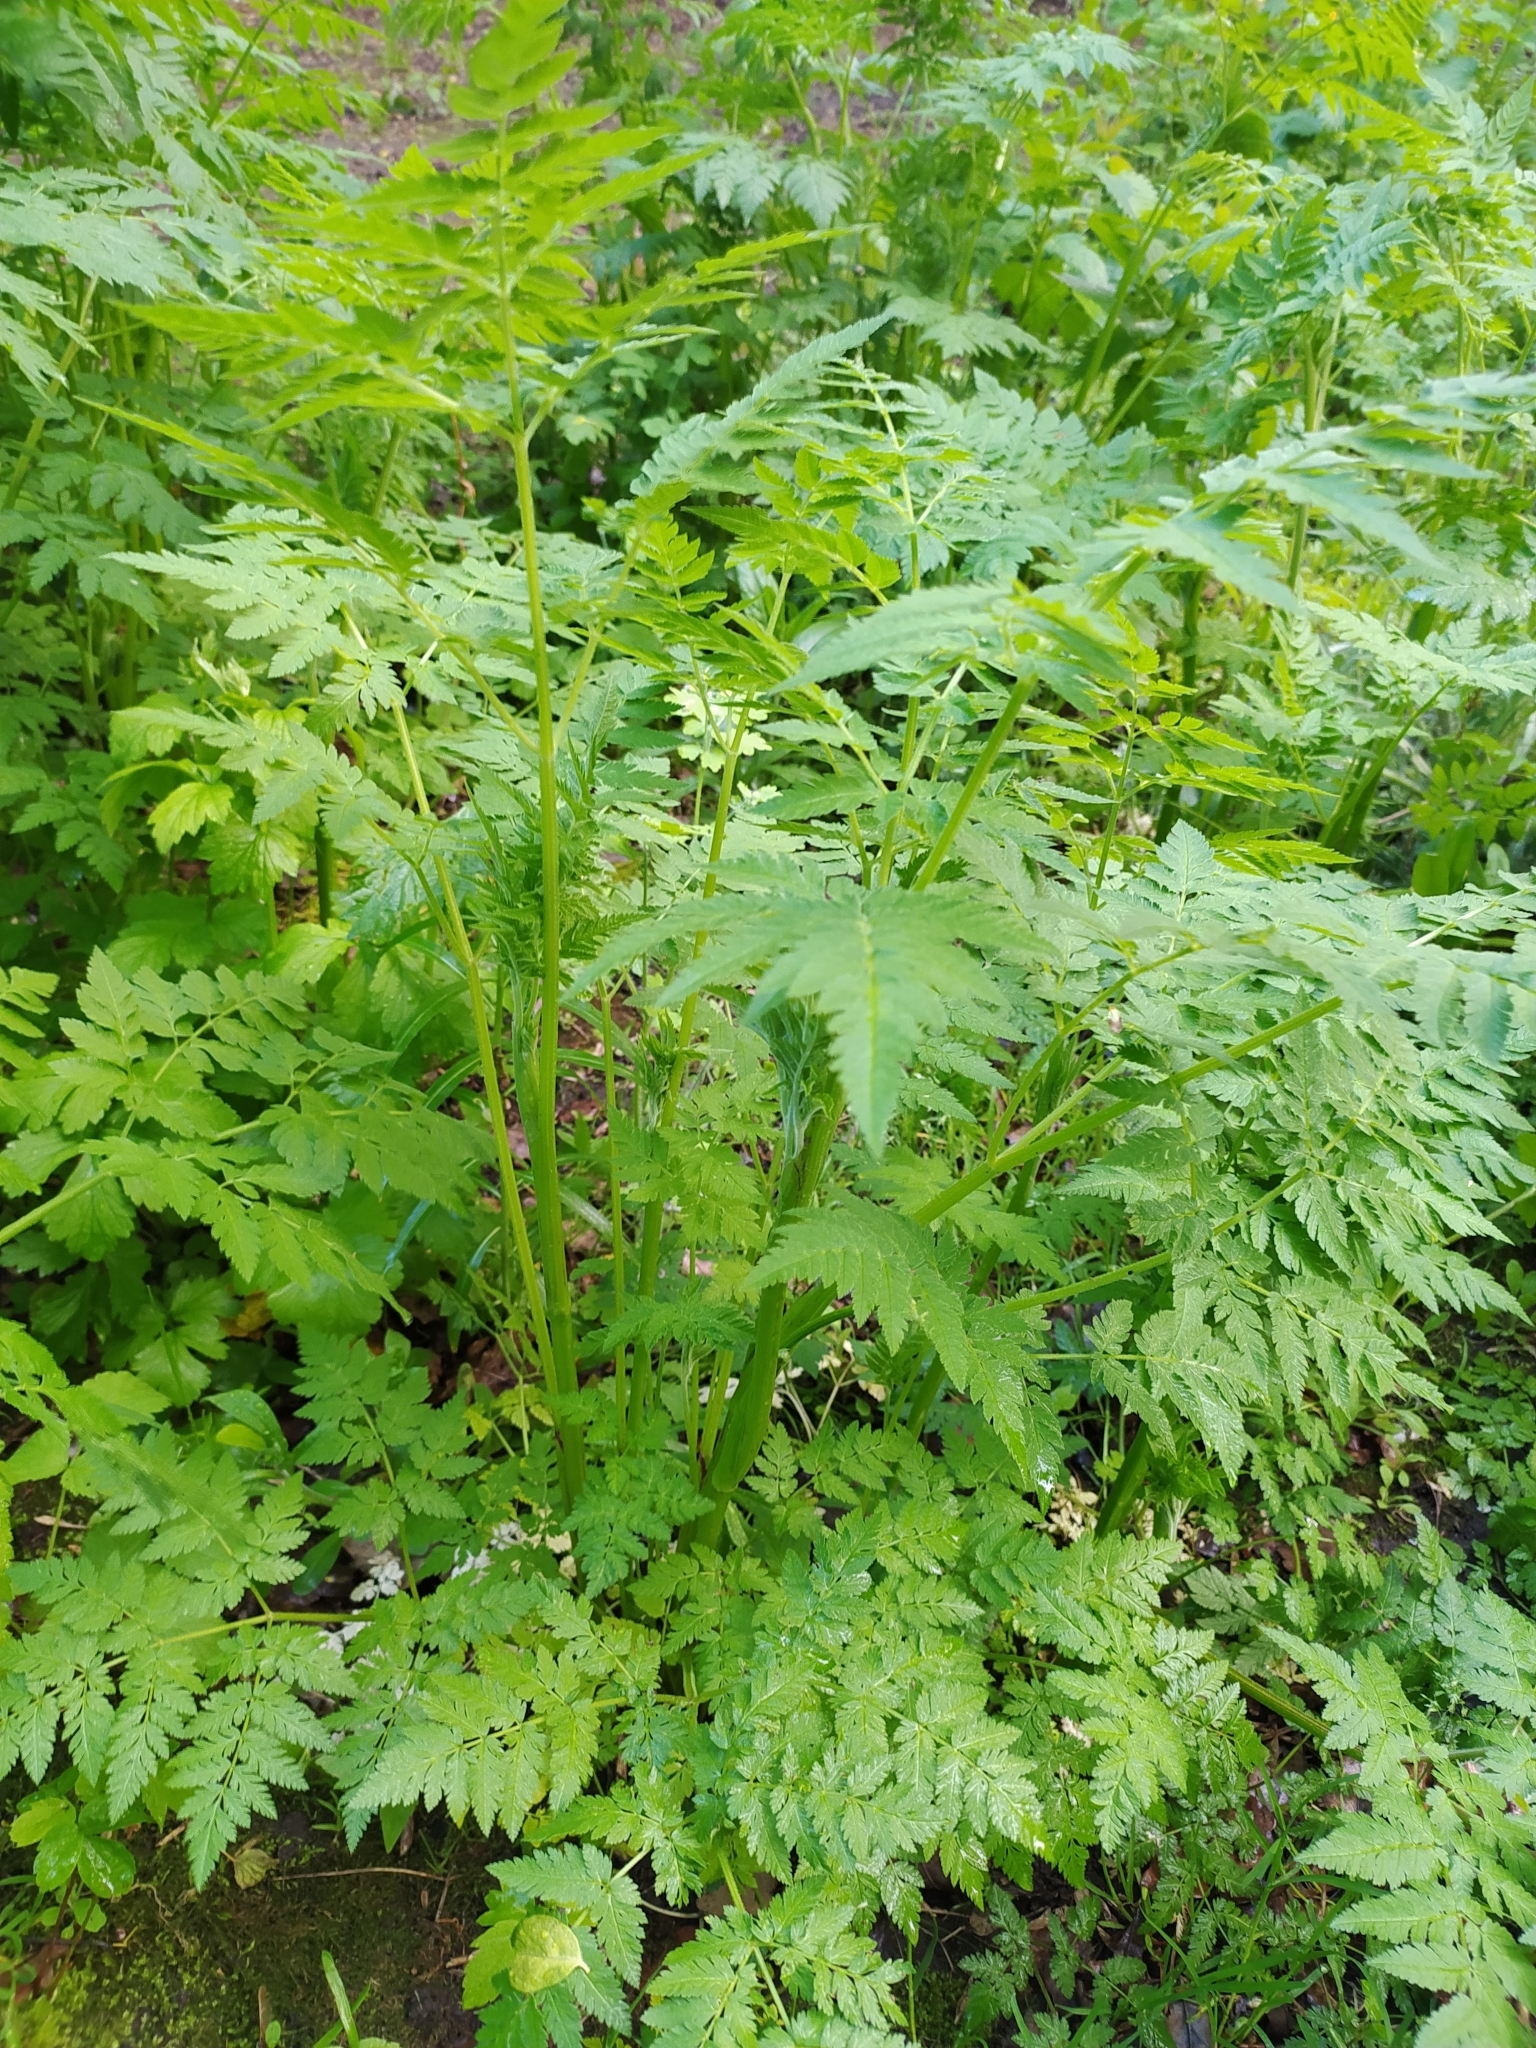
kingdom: Plantae
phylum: Tracheophyta
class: Magnoliopsida
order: Apiales
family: Apiaceae
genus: Anthriscus
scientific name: Anthriscus sylvestris
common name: Cow parsley
